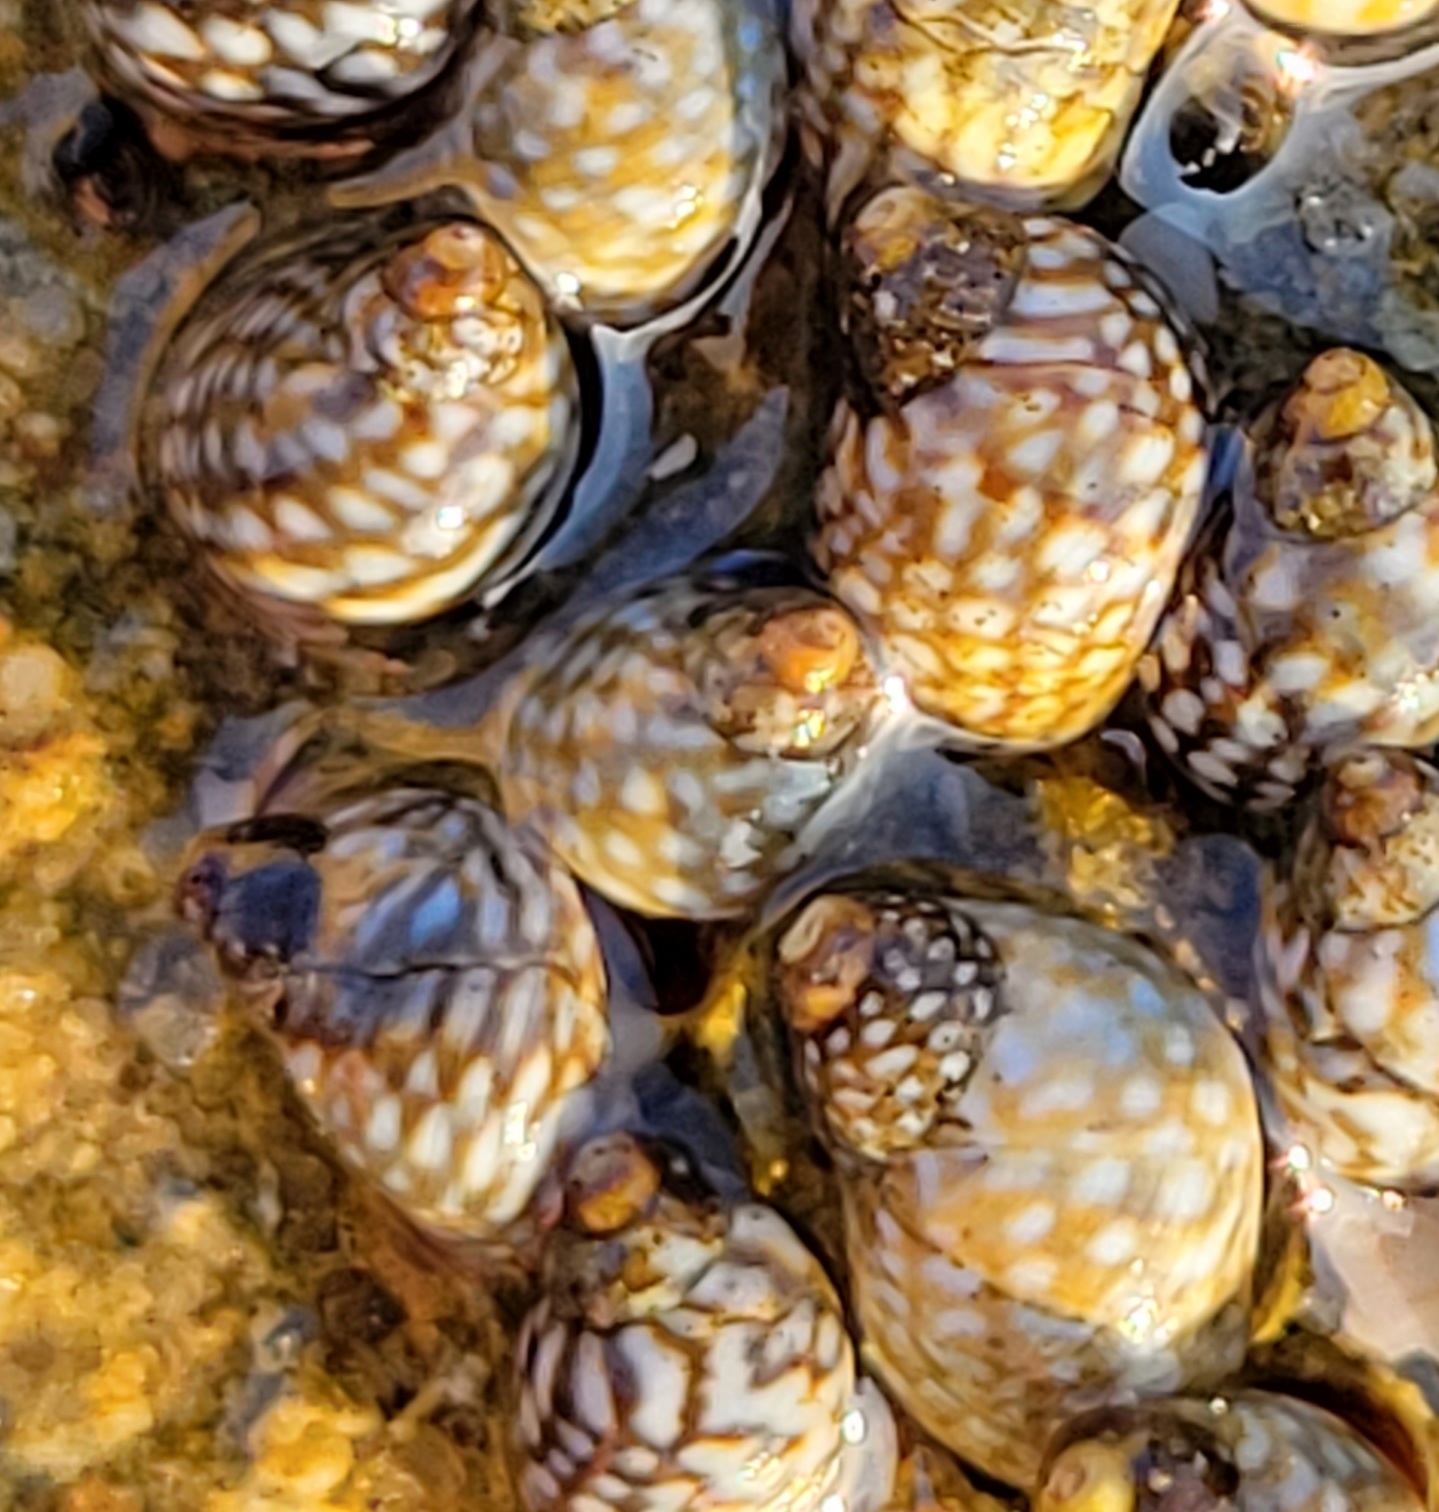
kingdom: Animalia
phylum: Mollusca
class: Gastropoda
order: Littorinimorpha
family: Littorinidae
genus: Echinolittorina
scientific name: Echinolittorina punctata
